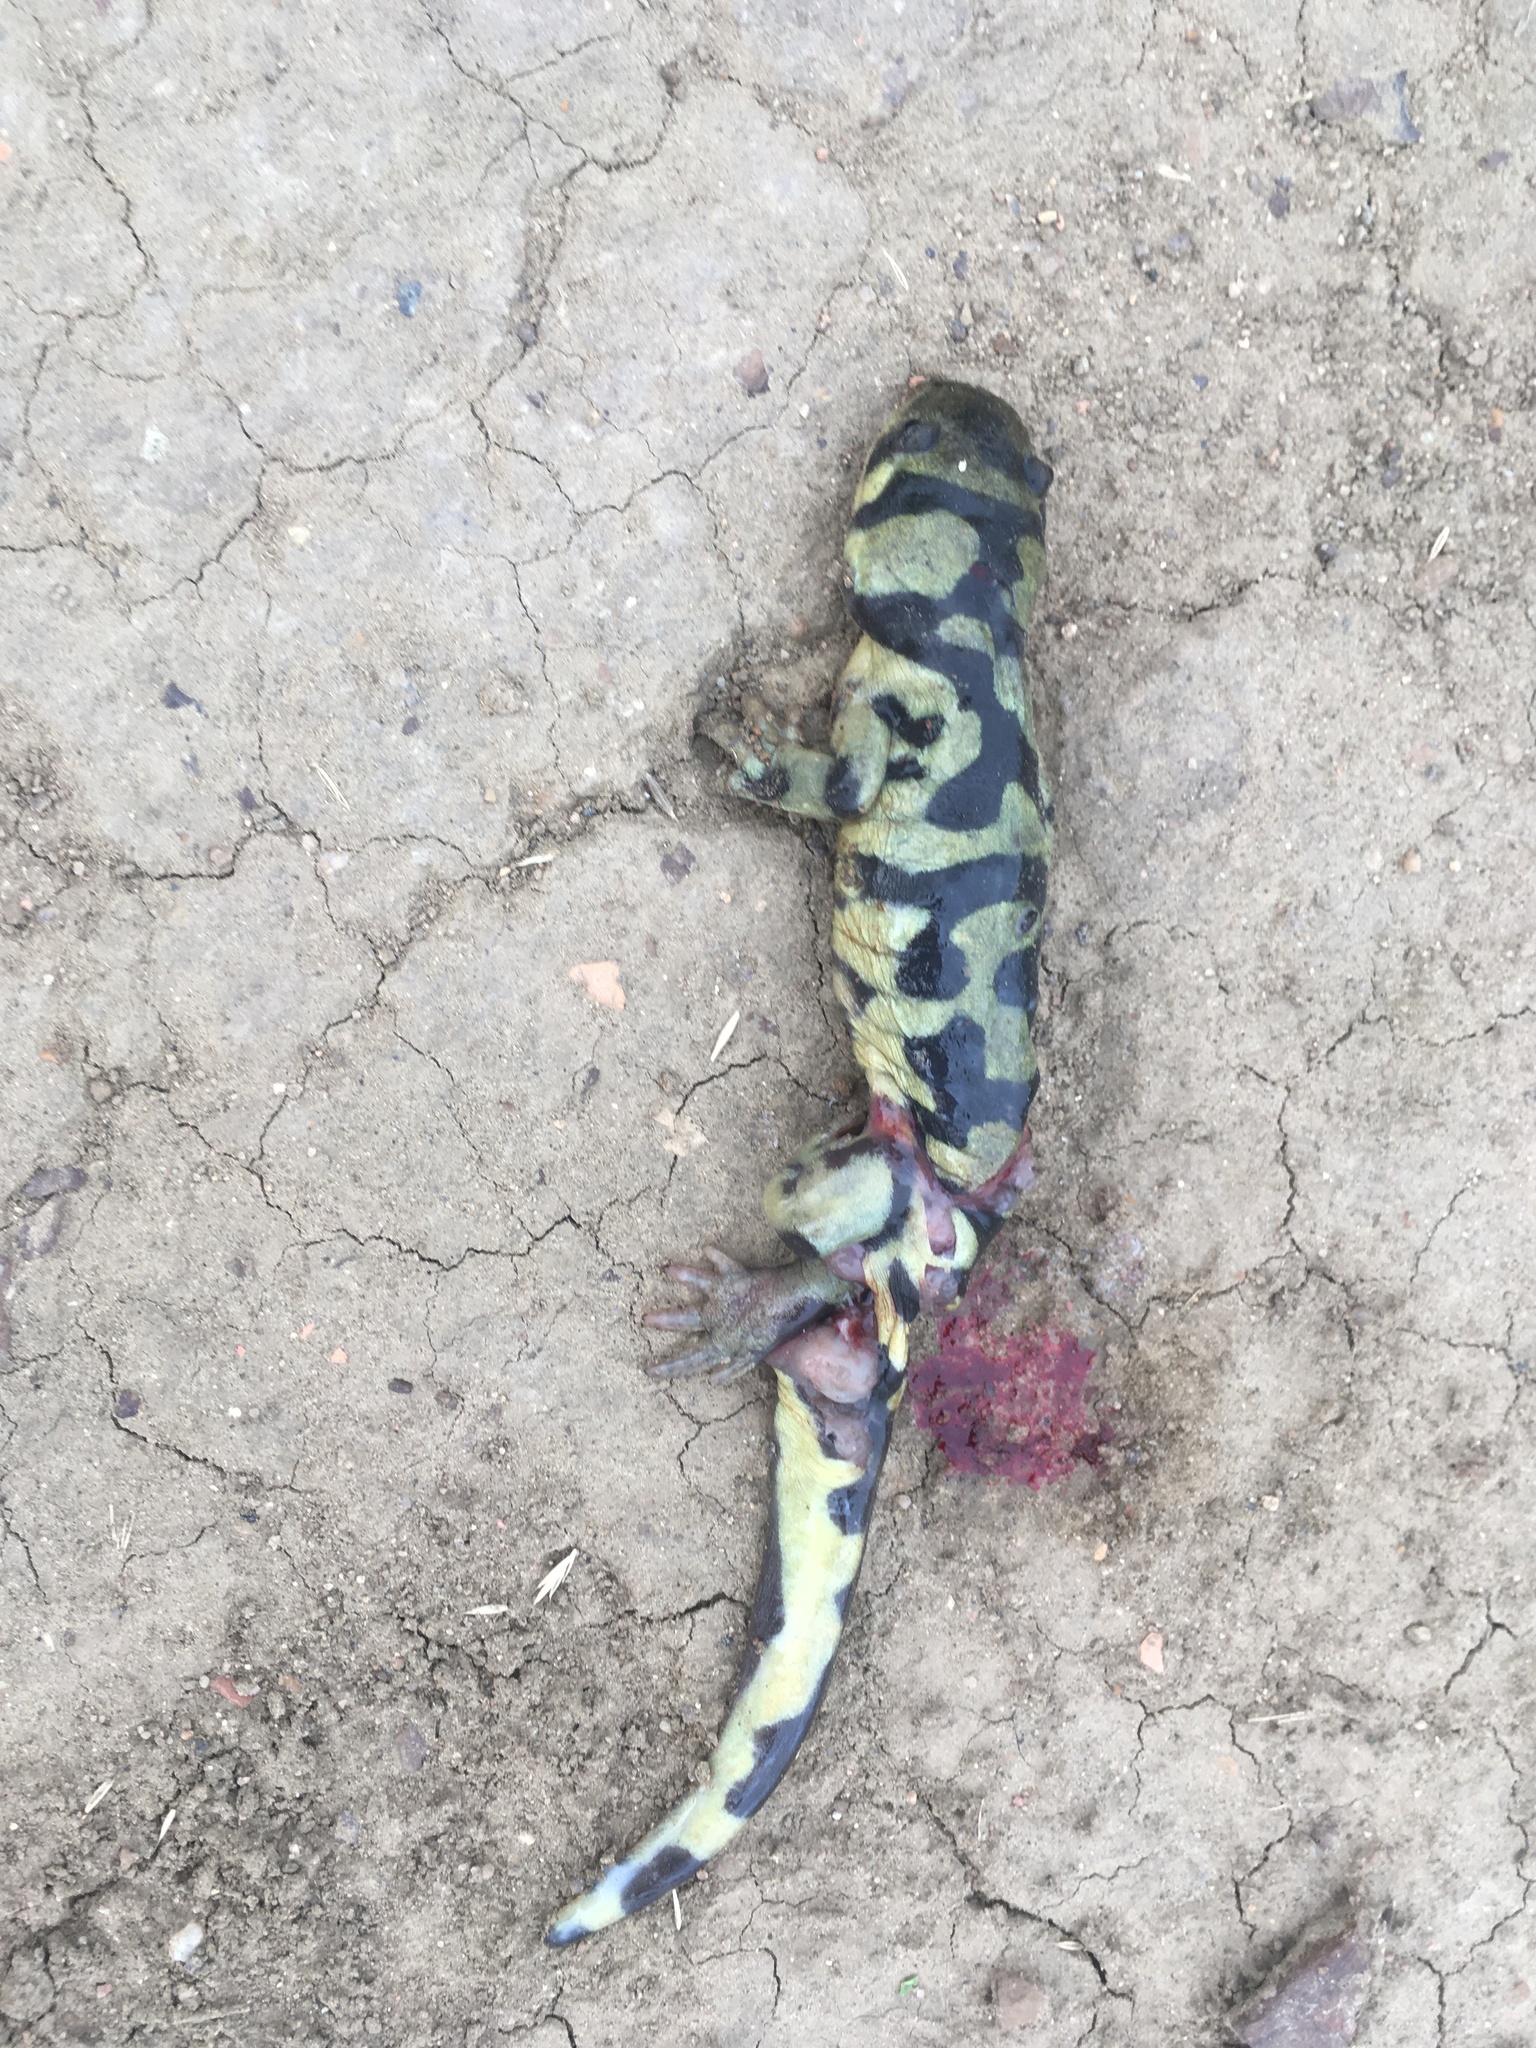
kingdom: Animalia
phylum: Chordata
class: Amphibia
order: Caudata
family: Ambystomatidae
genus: Ambystoma
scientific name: Ambystoma mavortium
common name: Western tiger salamander
